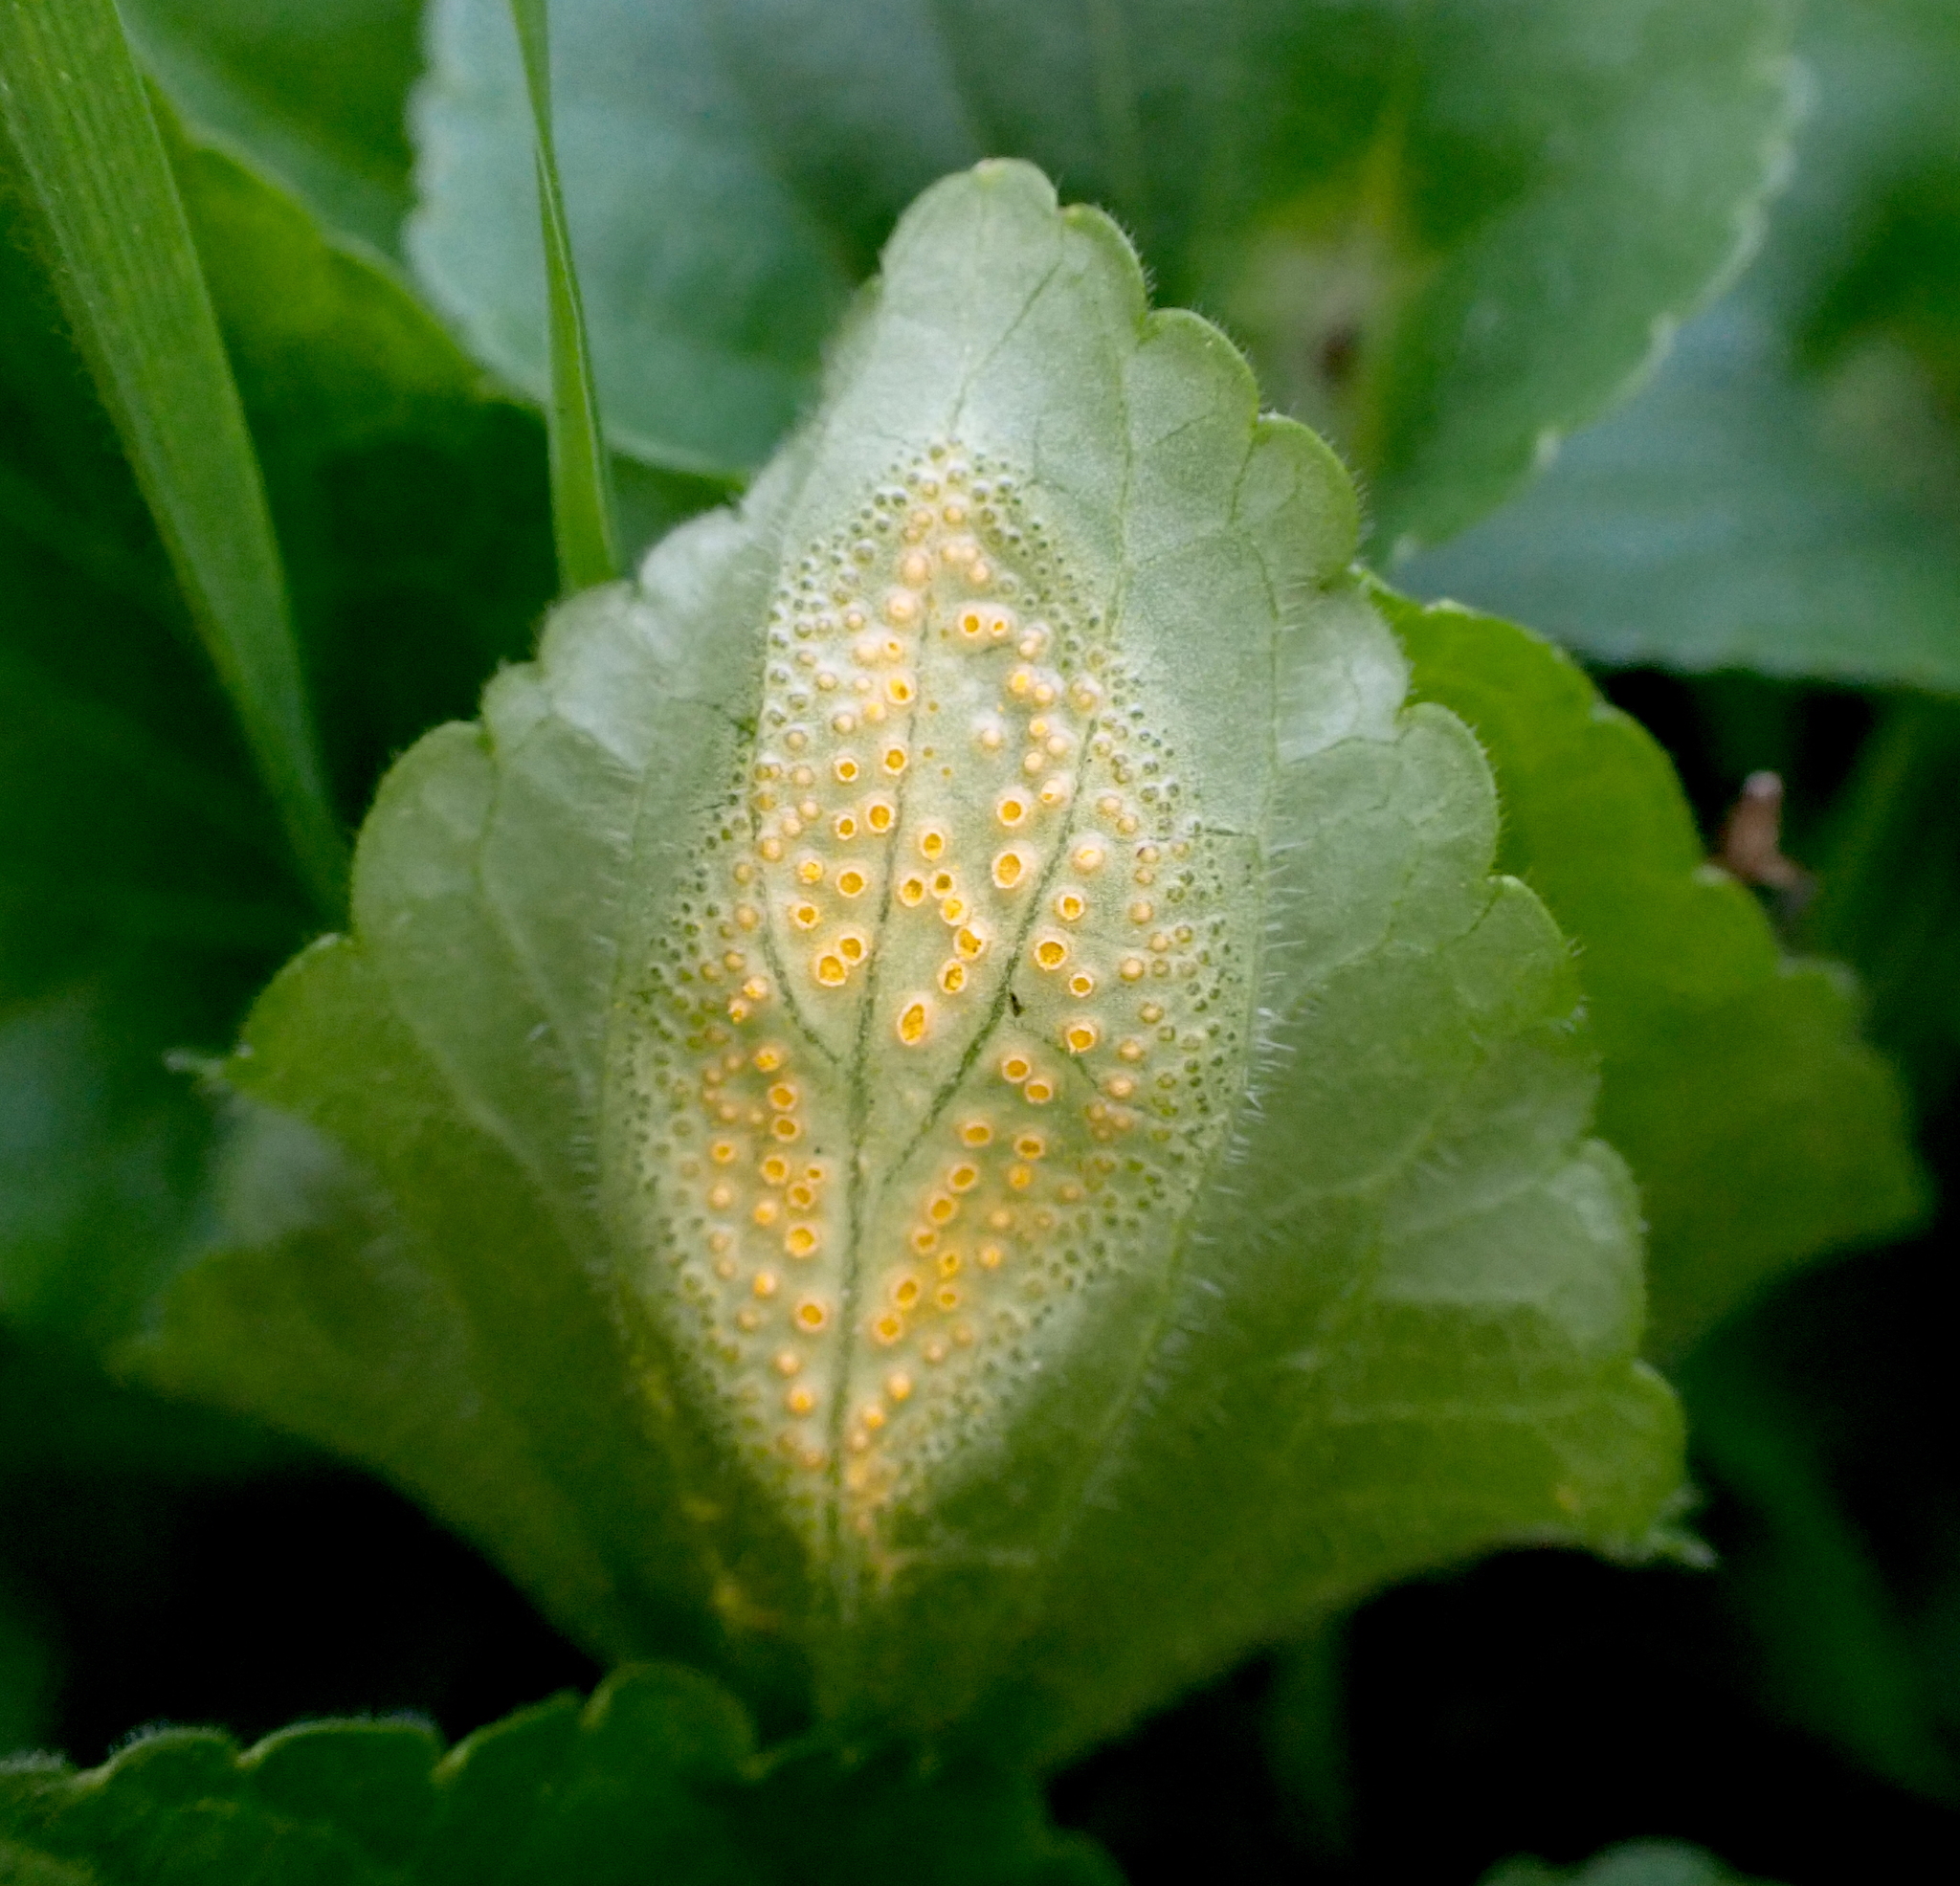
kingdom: Fungi
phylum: Basidiomycota
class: Pucciniomycetes
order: Pucciniales
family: Pucciniaceae
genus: Puccinia
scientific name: Puccinia violae
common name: Violet rust
